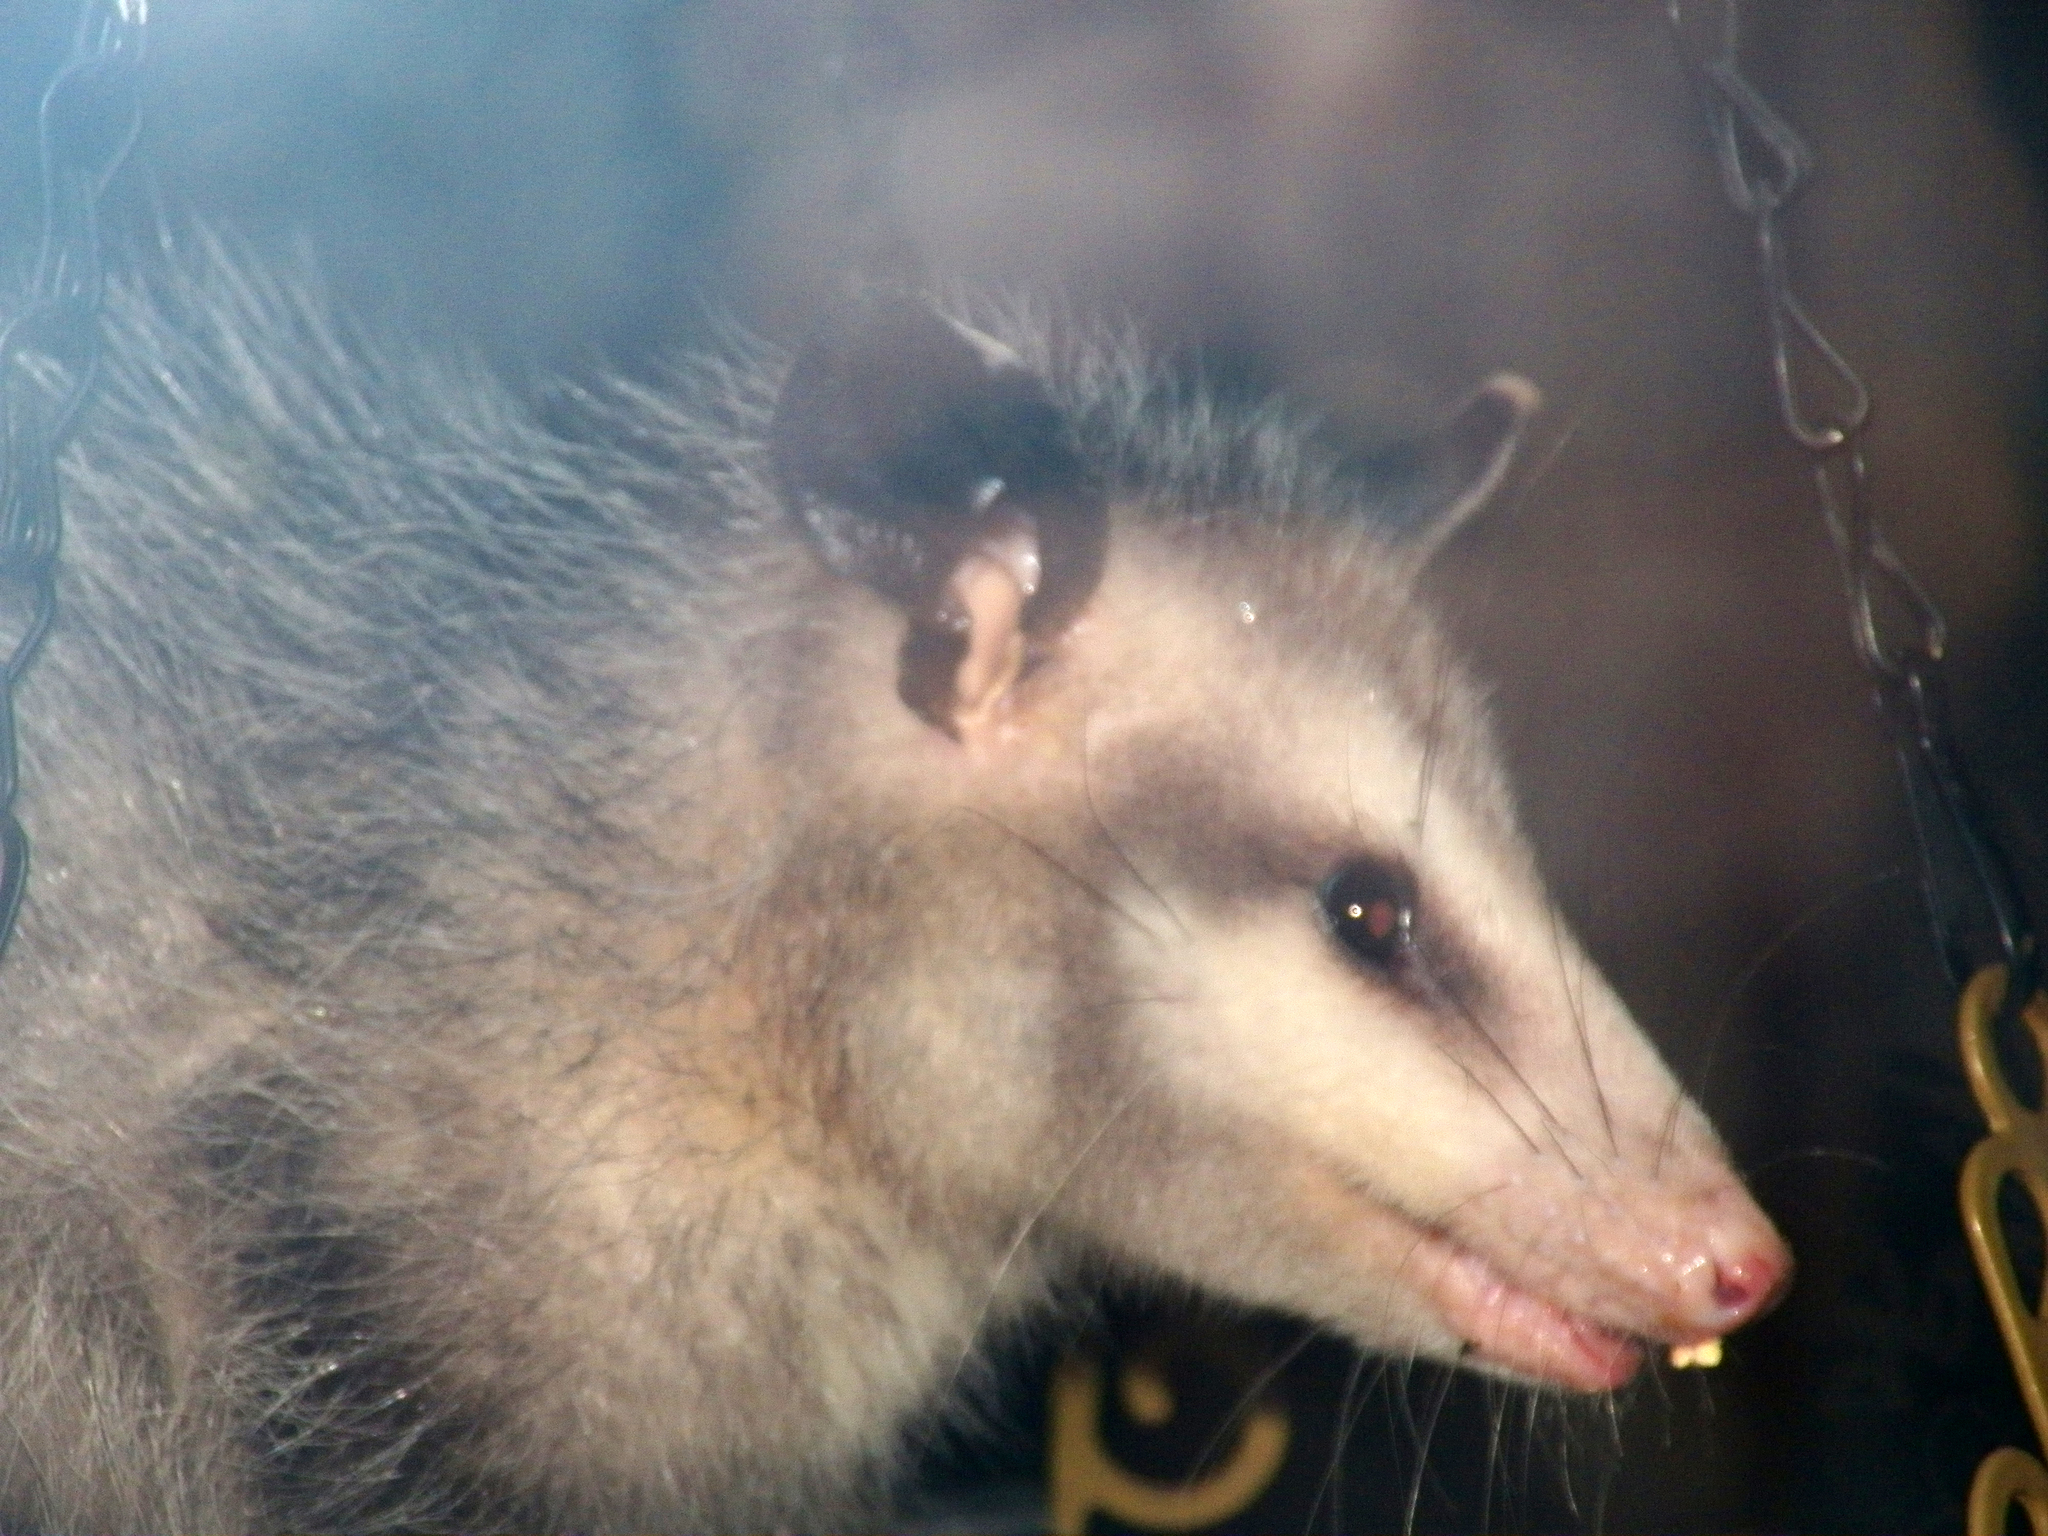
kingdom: Animalia
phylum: Chordata
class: Mammalia
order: Didelphimorphia
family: Didelphidae
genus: Didelphis
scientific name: Didelphis virginiana
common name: Virginia opossum
